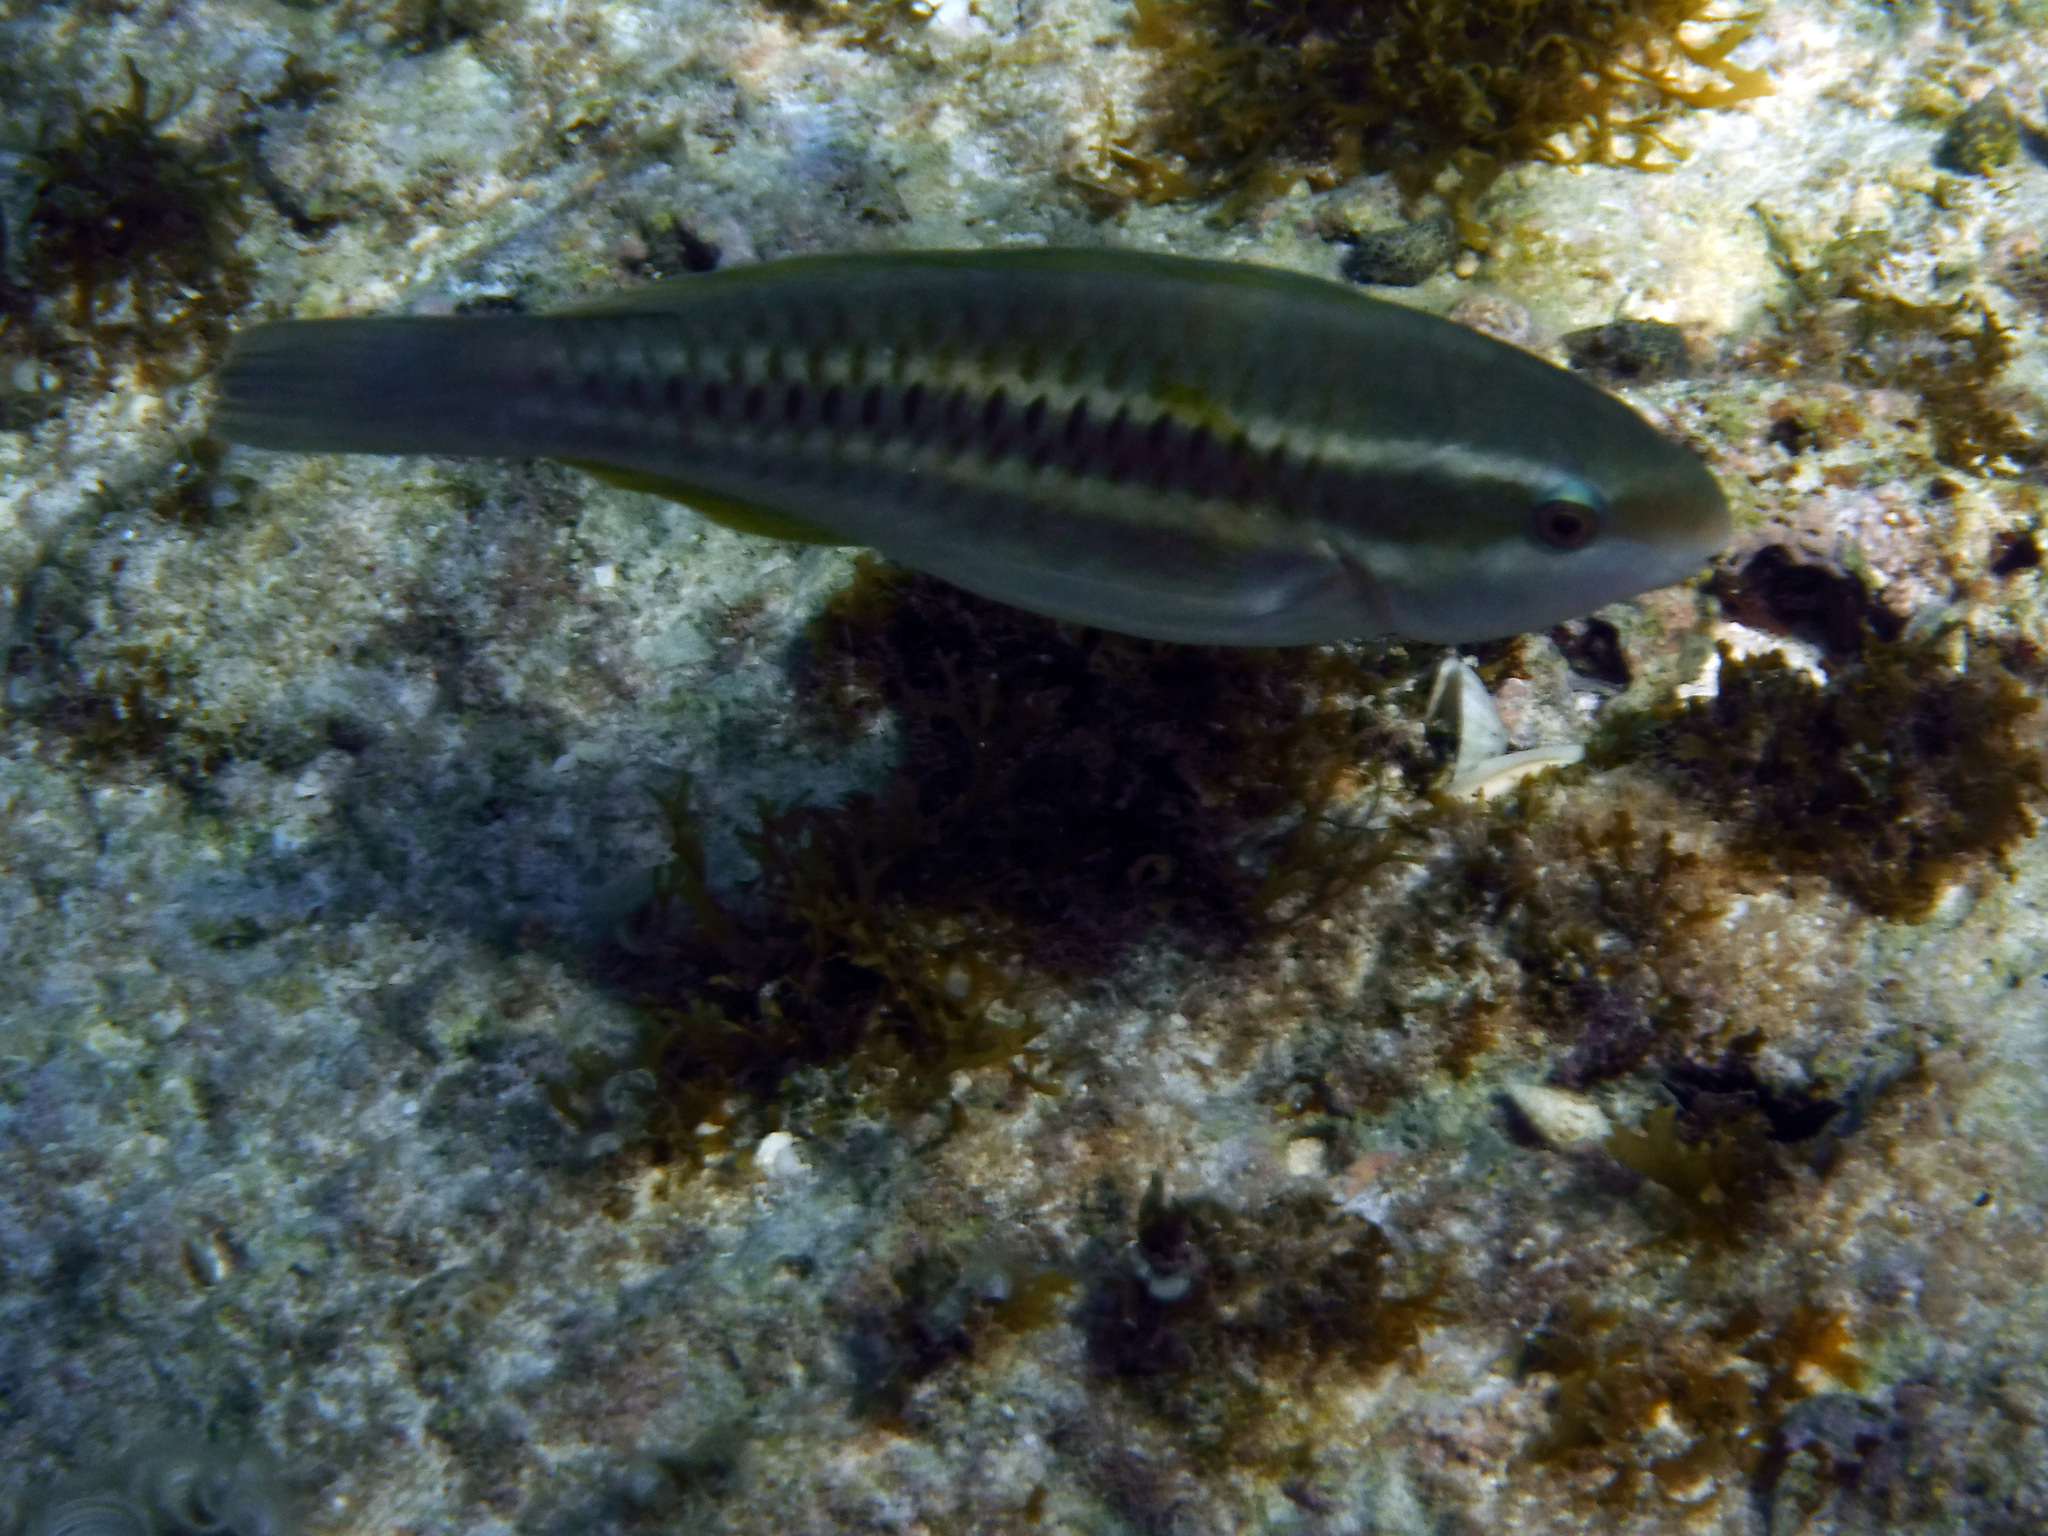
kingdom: Animalia
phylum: Chordata
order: Perciformes
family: Scaridae
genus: Scarus
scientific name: Scarus iseri
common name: Striped parrotfish
